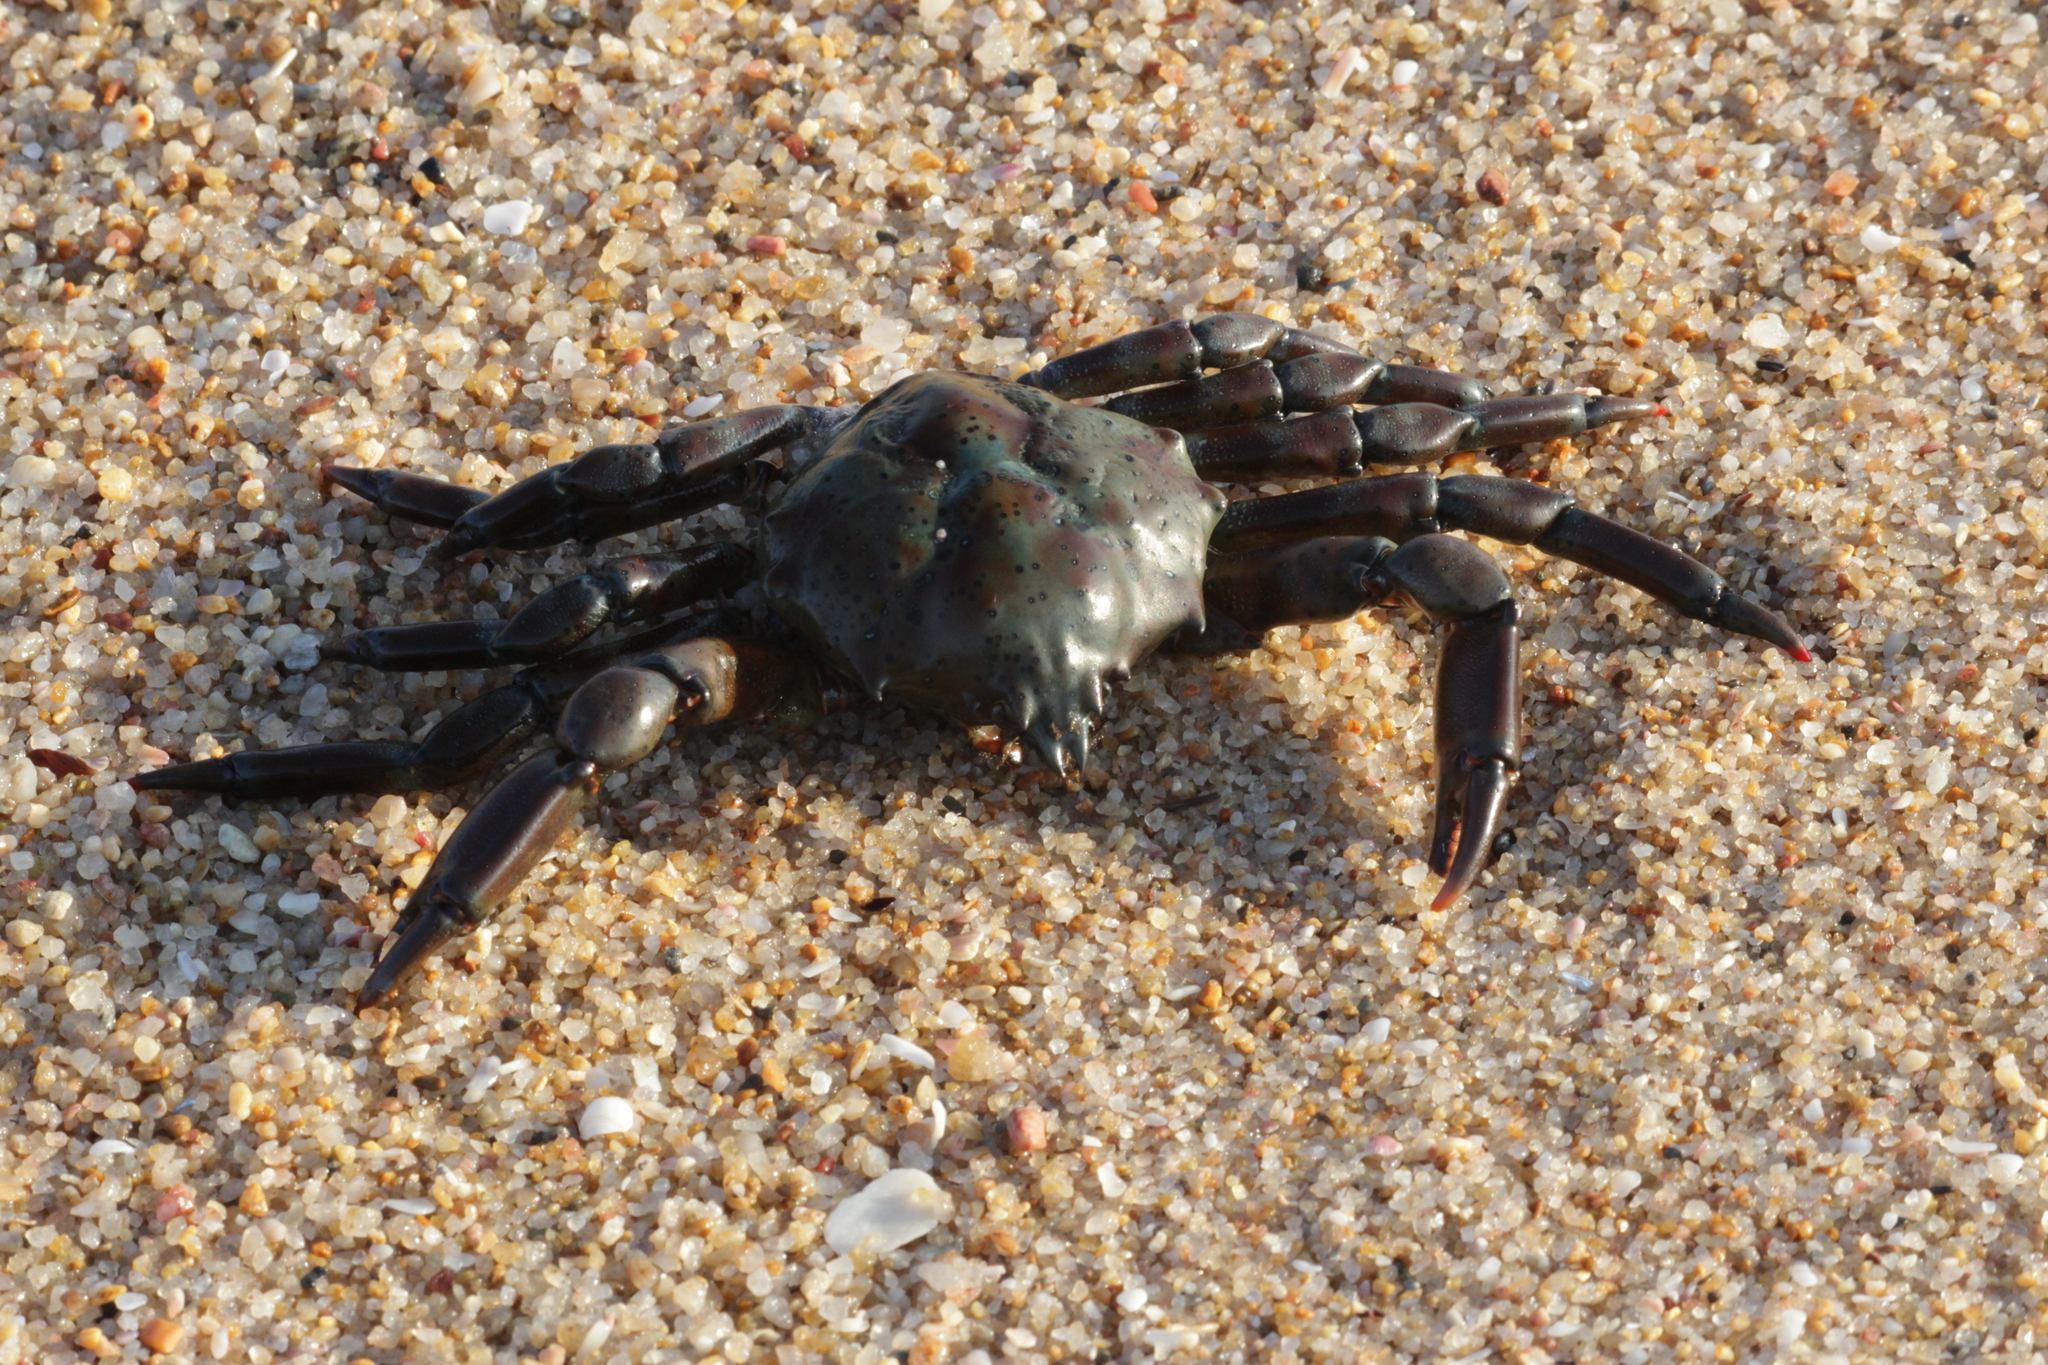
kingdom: Animalia
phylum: Arthropoda
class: Malacostraca
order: Decapoda
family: Epialtidae
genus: Acanthonyx
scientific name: Acanthonyx undulatus
